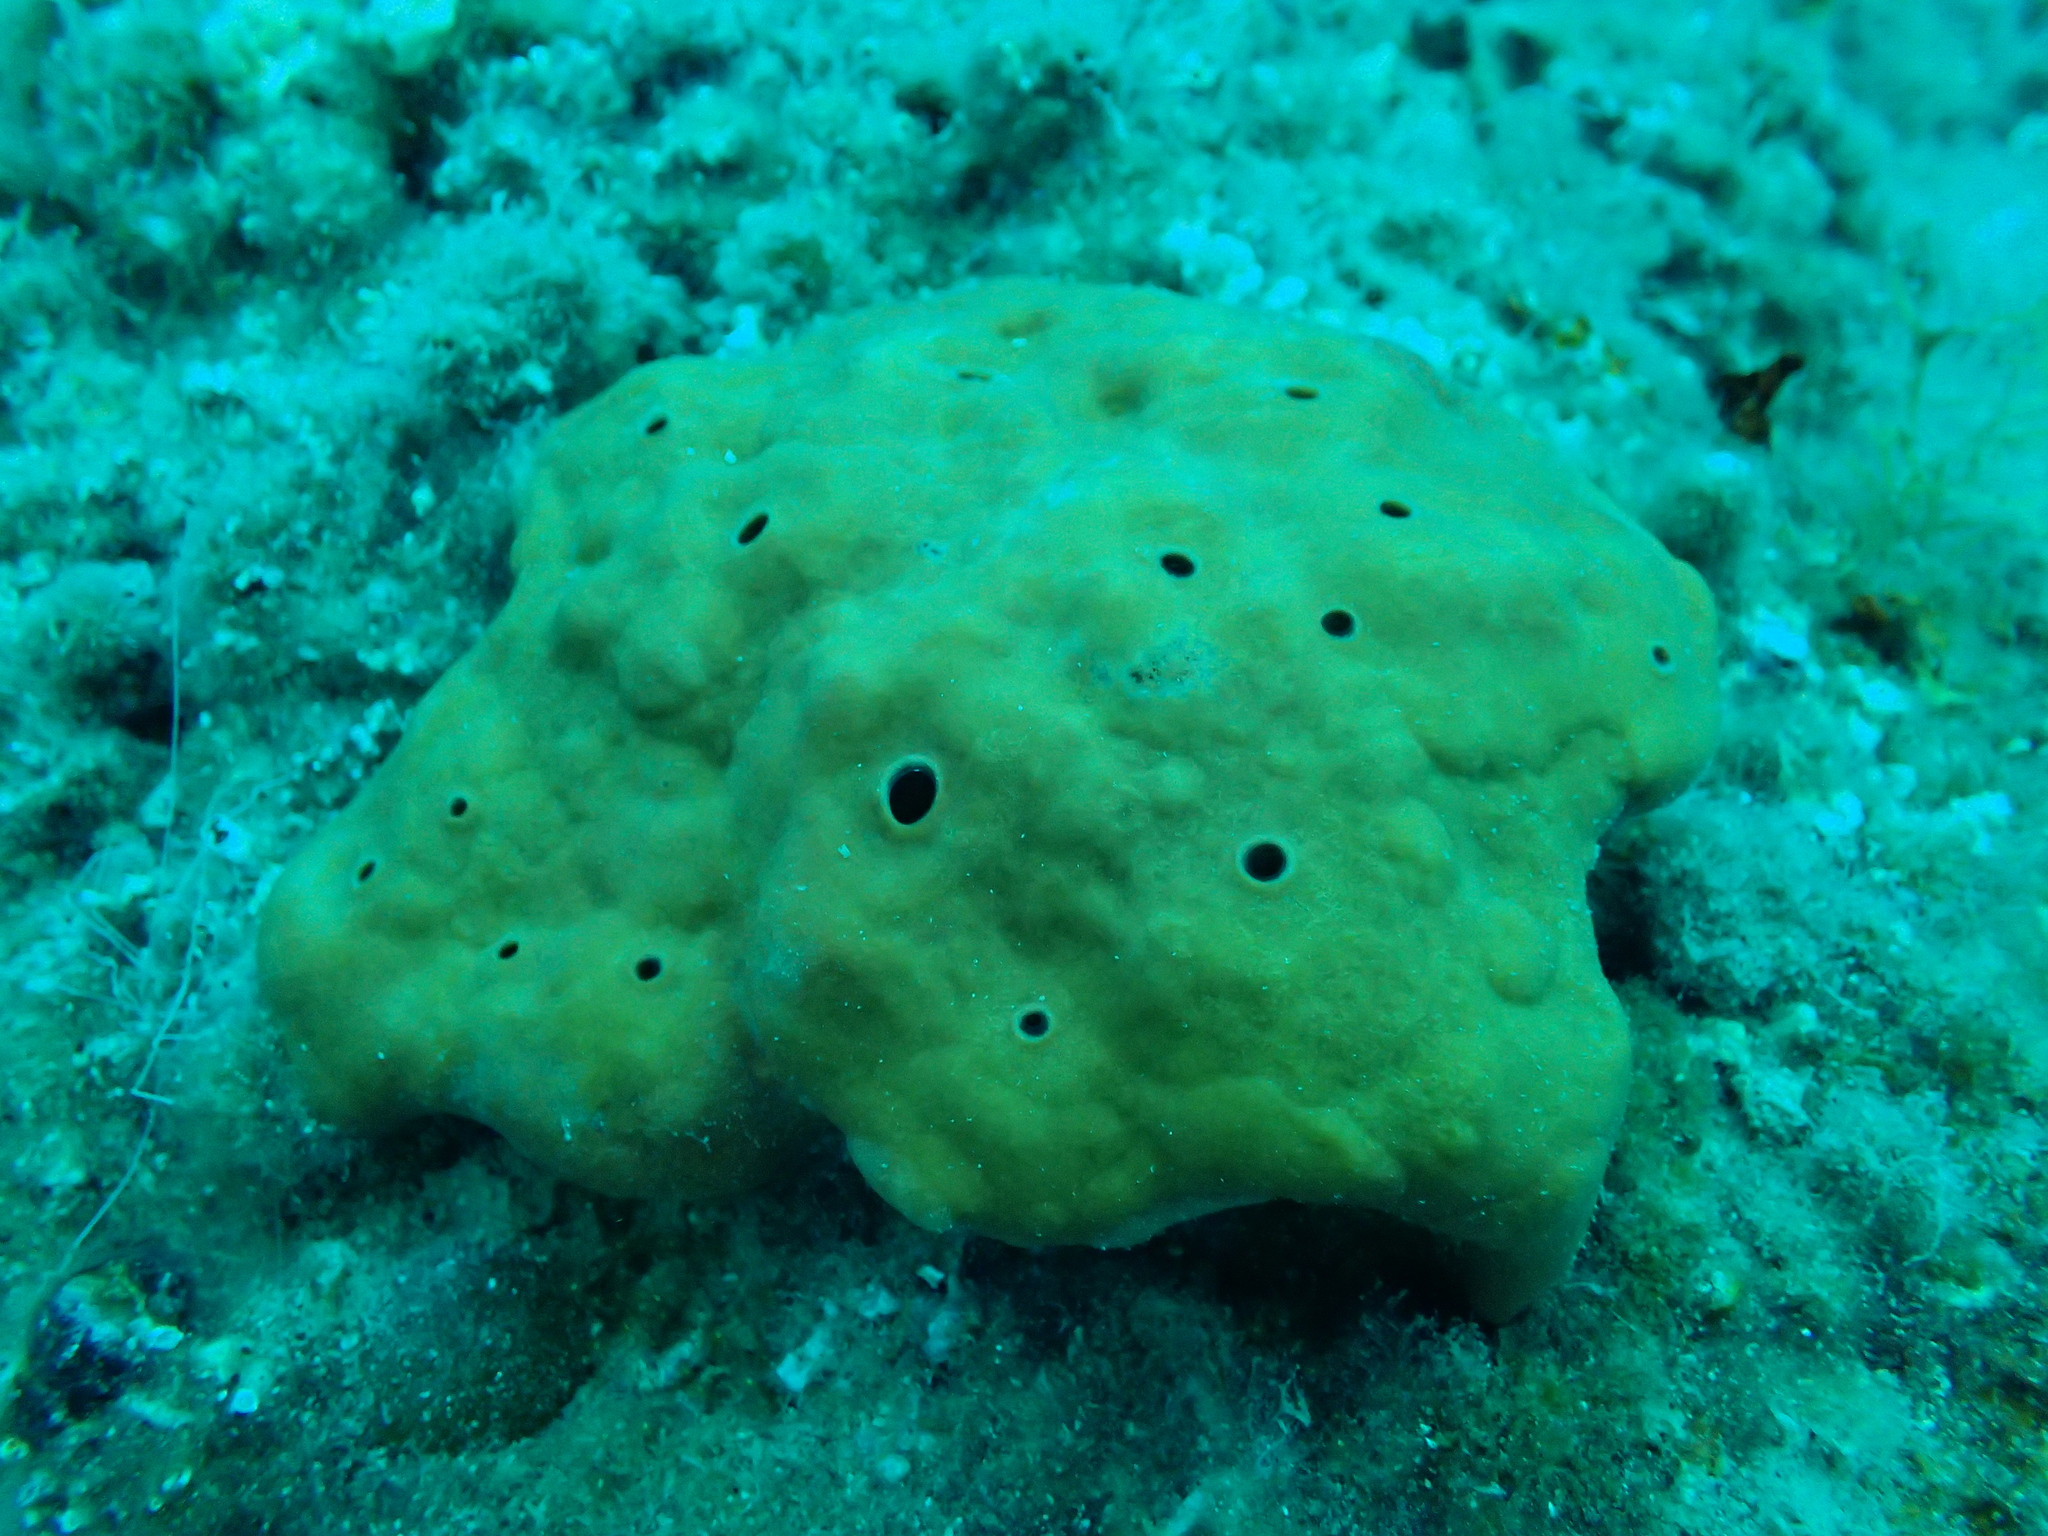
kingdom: Animalia
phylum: Porifera
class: Demospongiae
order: Haplosclerida
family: Petrosiidae
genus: Petrosia
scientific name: Petrosia ficiformis
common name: Stony sponge
